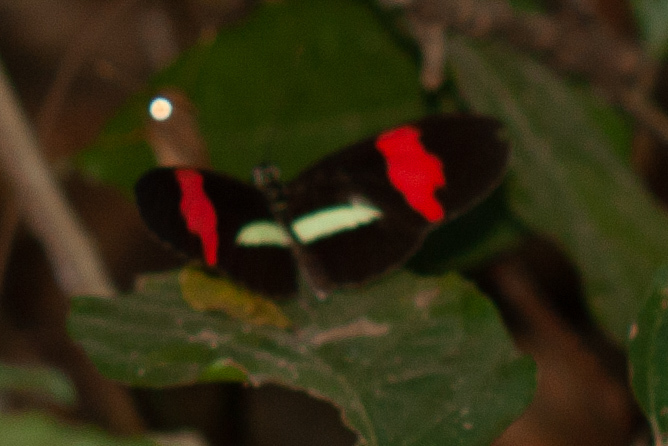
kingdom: Animalia
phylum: Arthropoda
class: Insecta
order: Lepidoptera
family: Nymphalidae
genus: Heliconius
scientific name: Heliconius erato
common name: Common patch longwing
